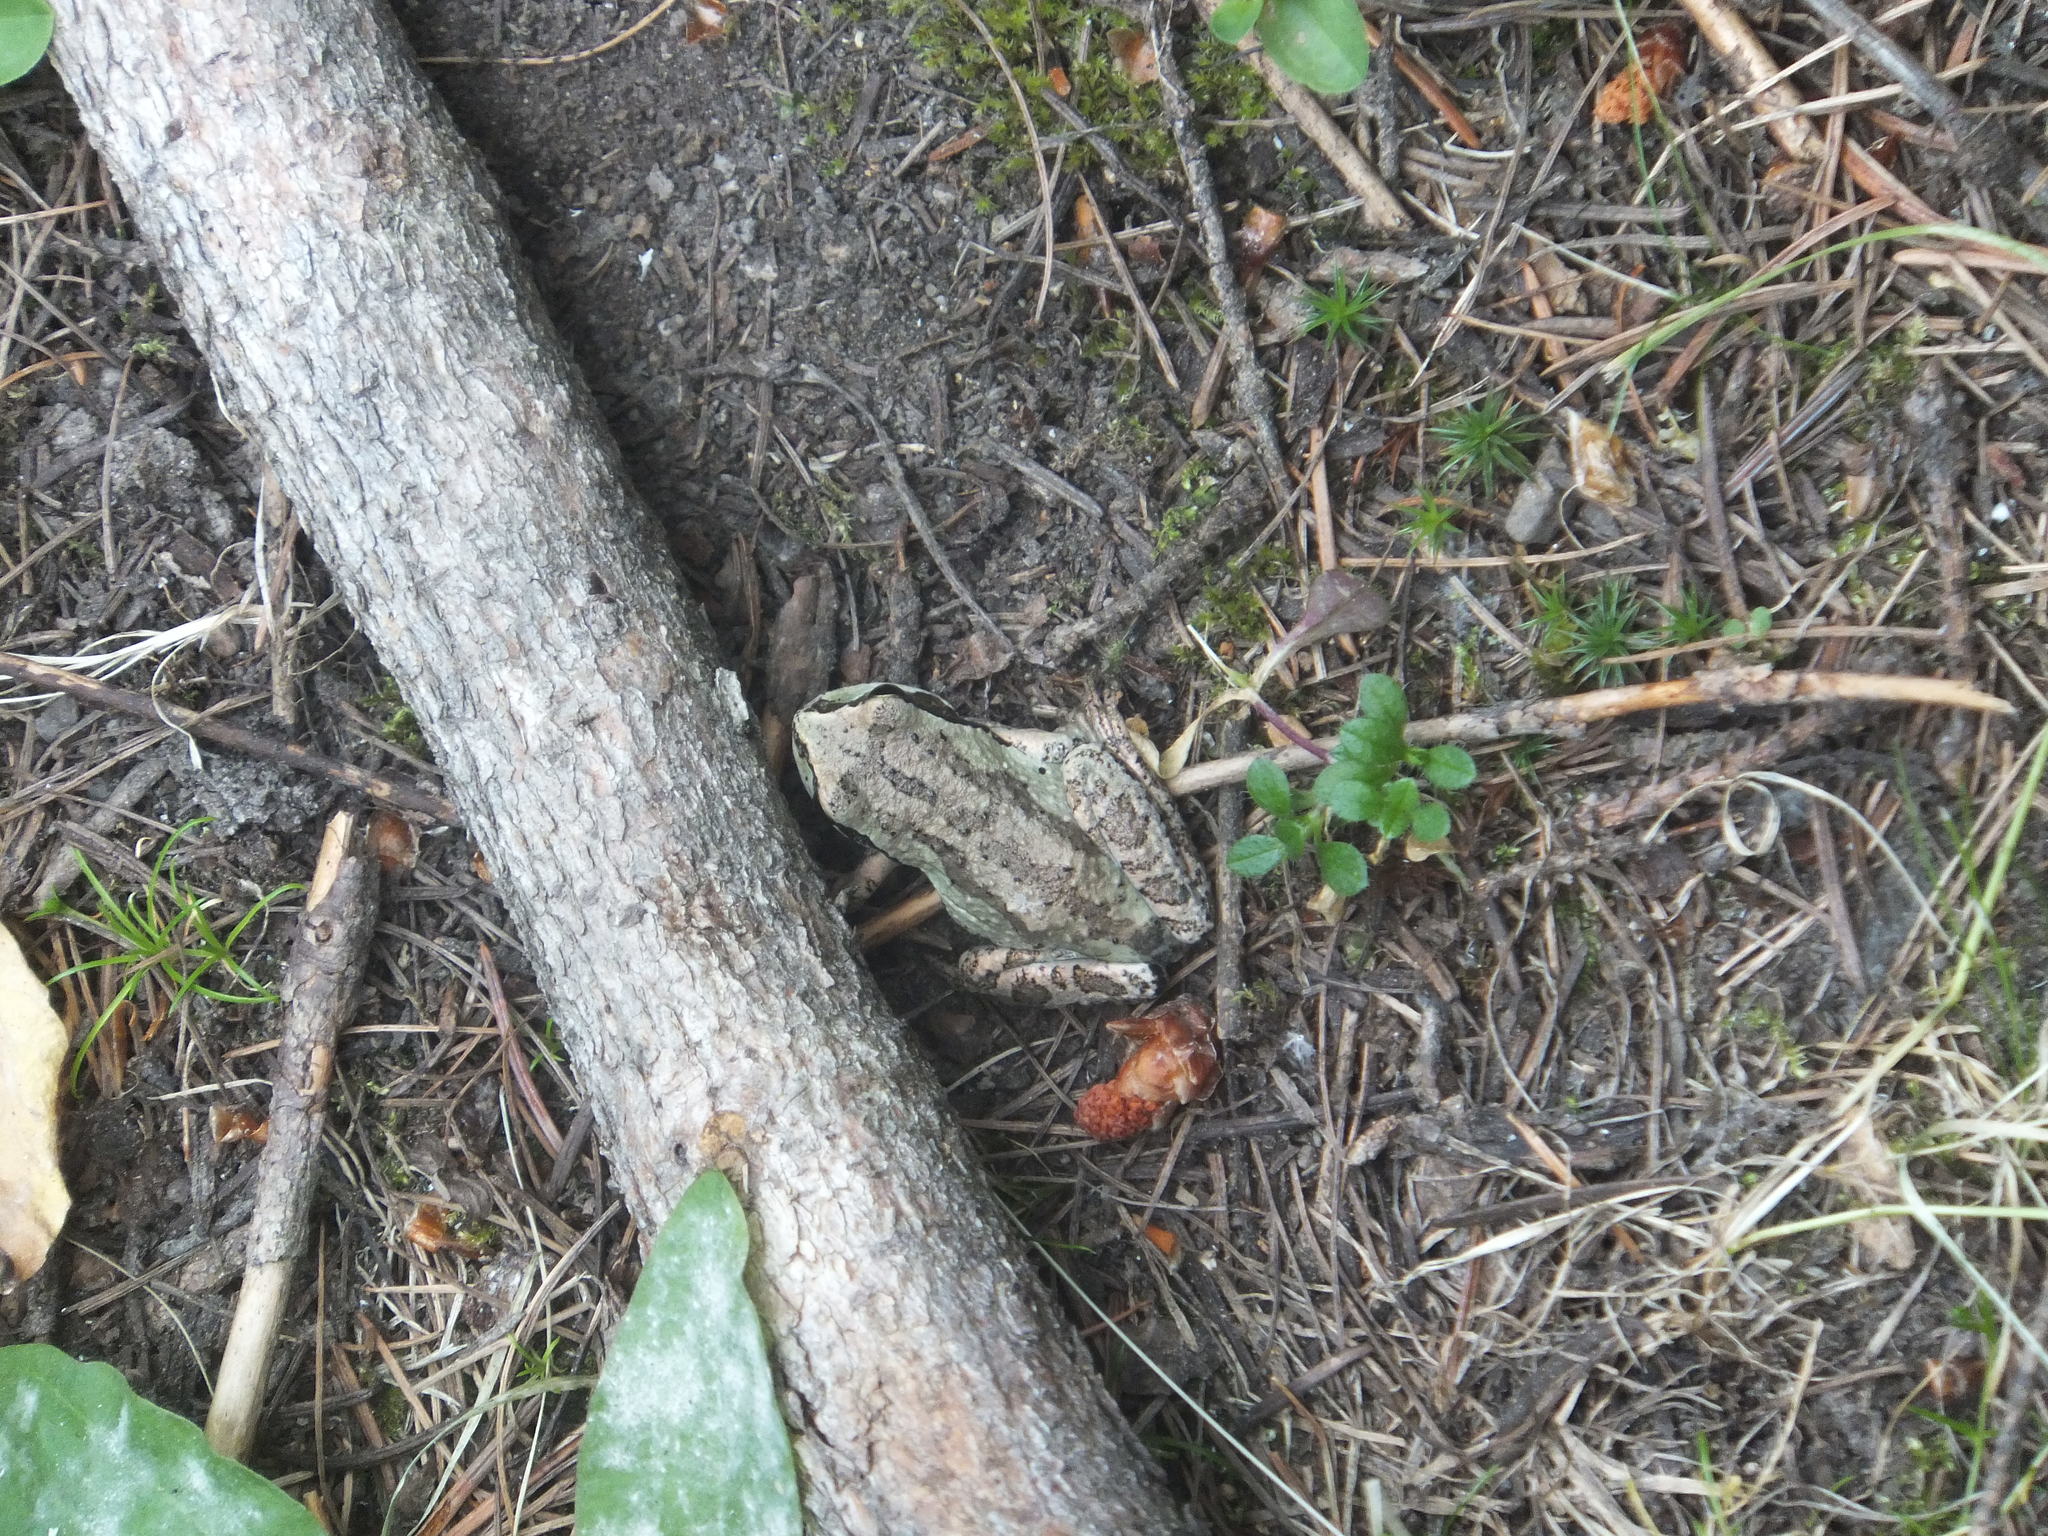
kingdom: Animalia
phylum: Chordata
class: Amphibia
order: Anura
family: Hylidae
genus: Pseudacris
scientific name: Pseudacris regilla
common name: Pacific chorus frog
